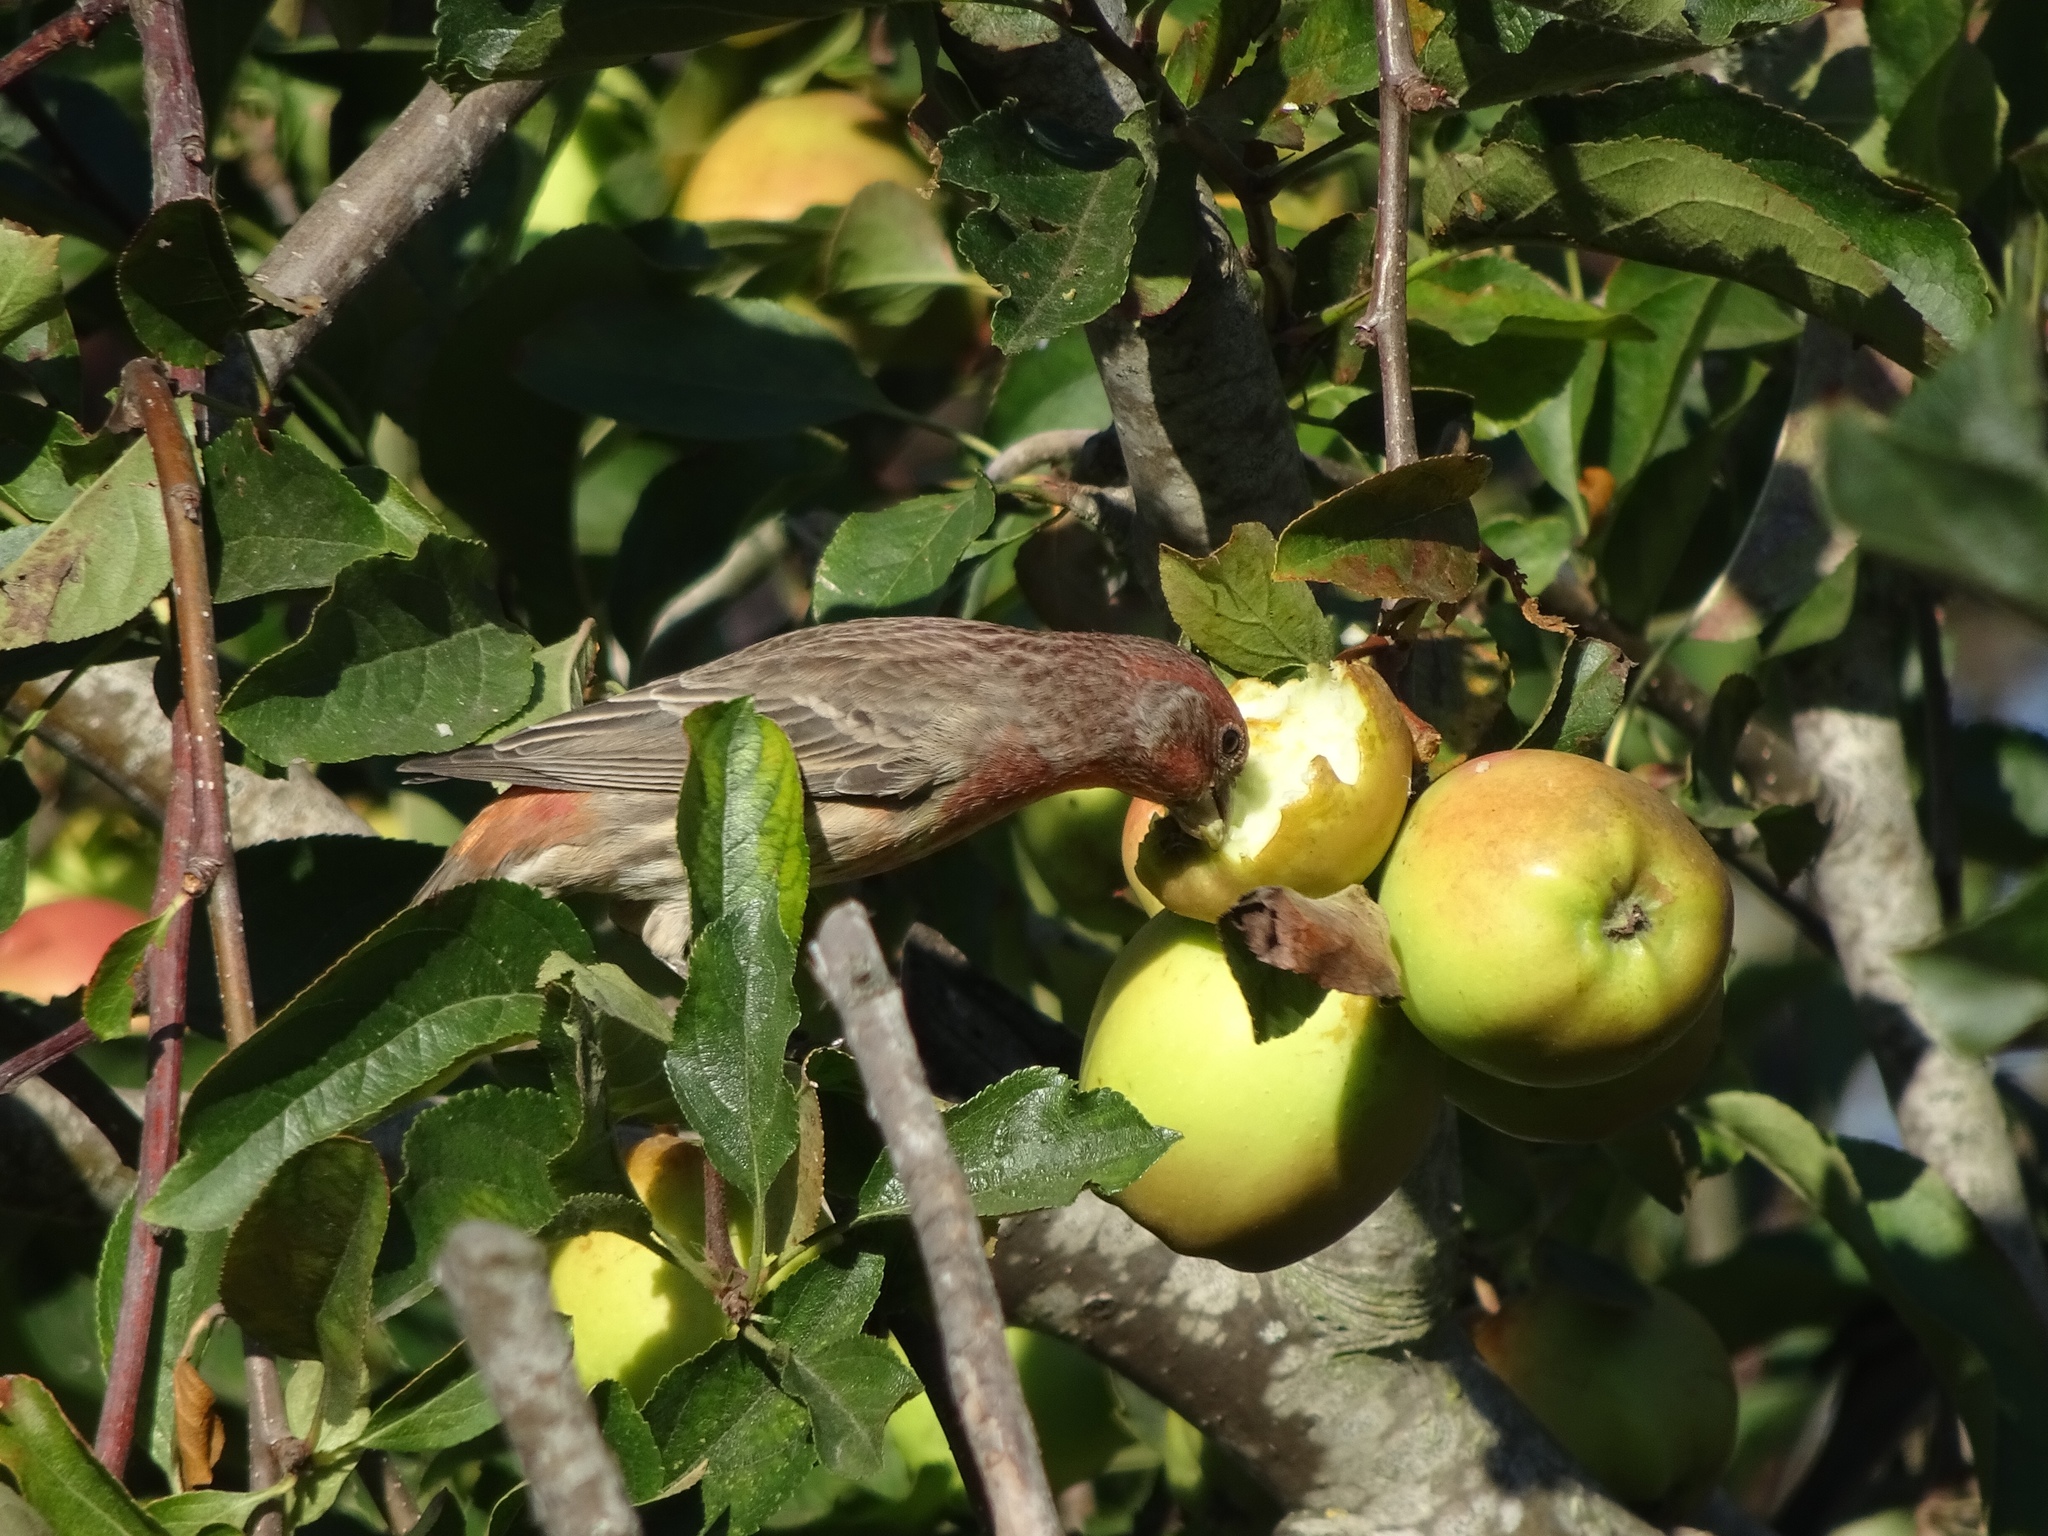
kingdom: Animalia
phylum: Chordata
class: Aves
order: Passeriformes
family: Fringillidae
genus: Haemorhous
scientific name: Haemorhous mexicanus
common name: House finch
